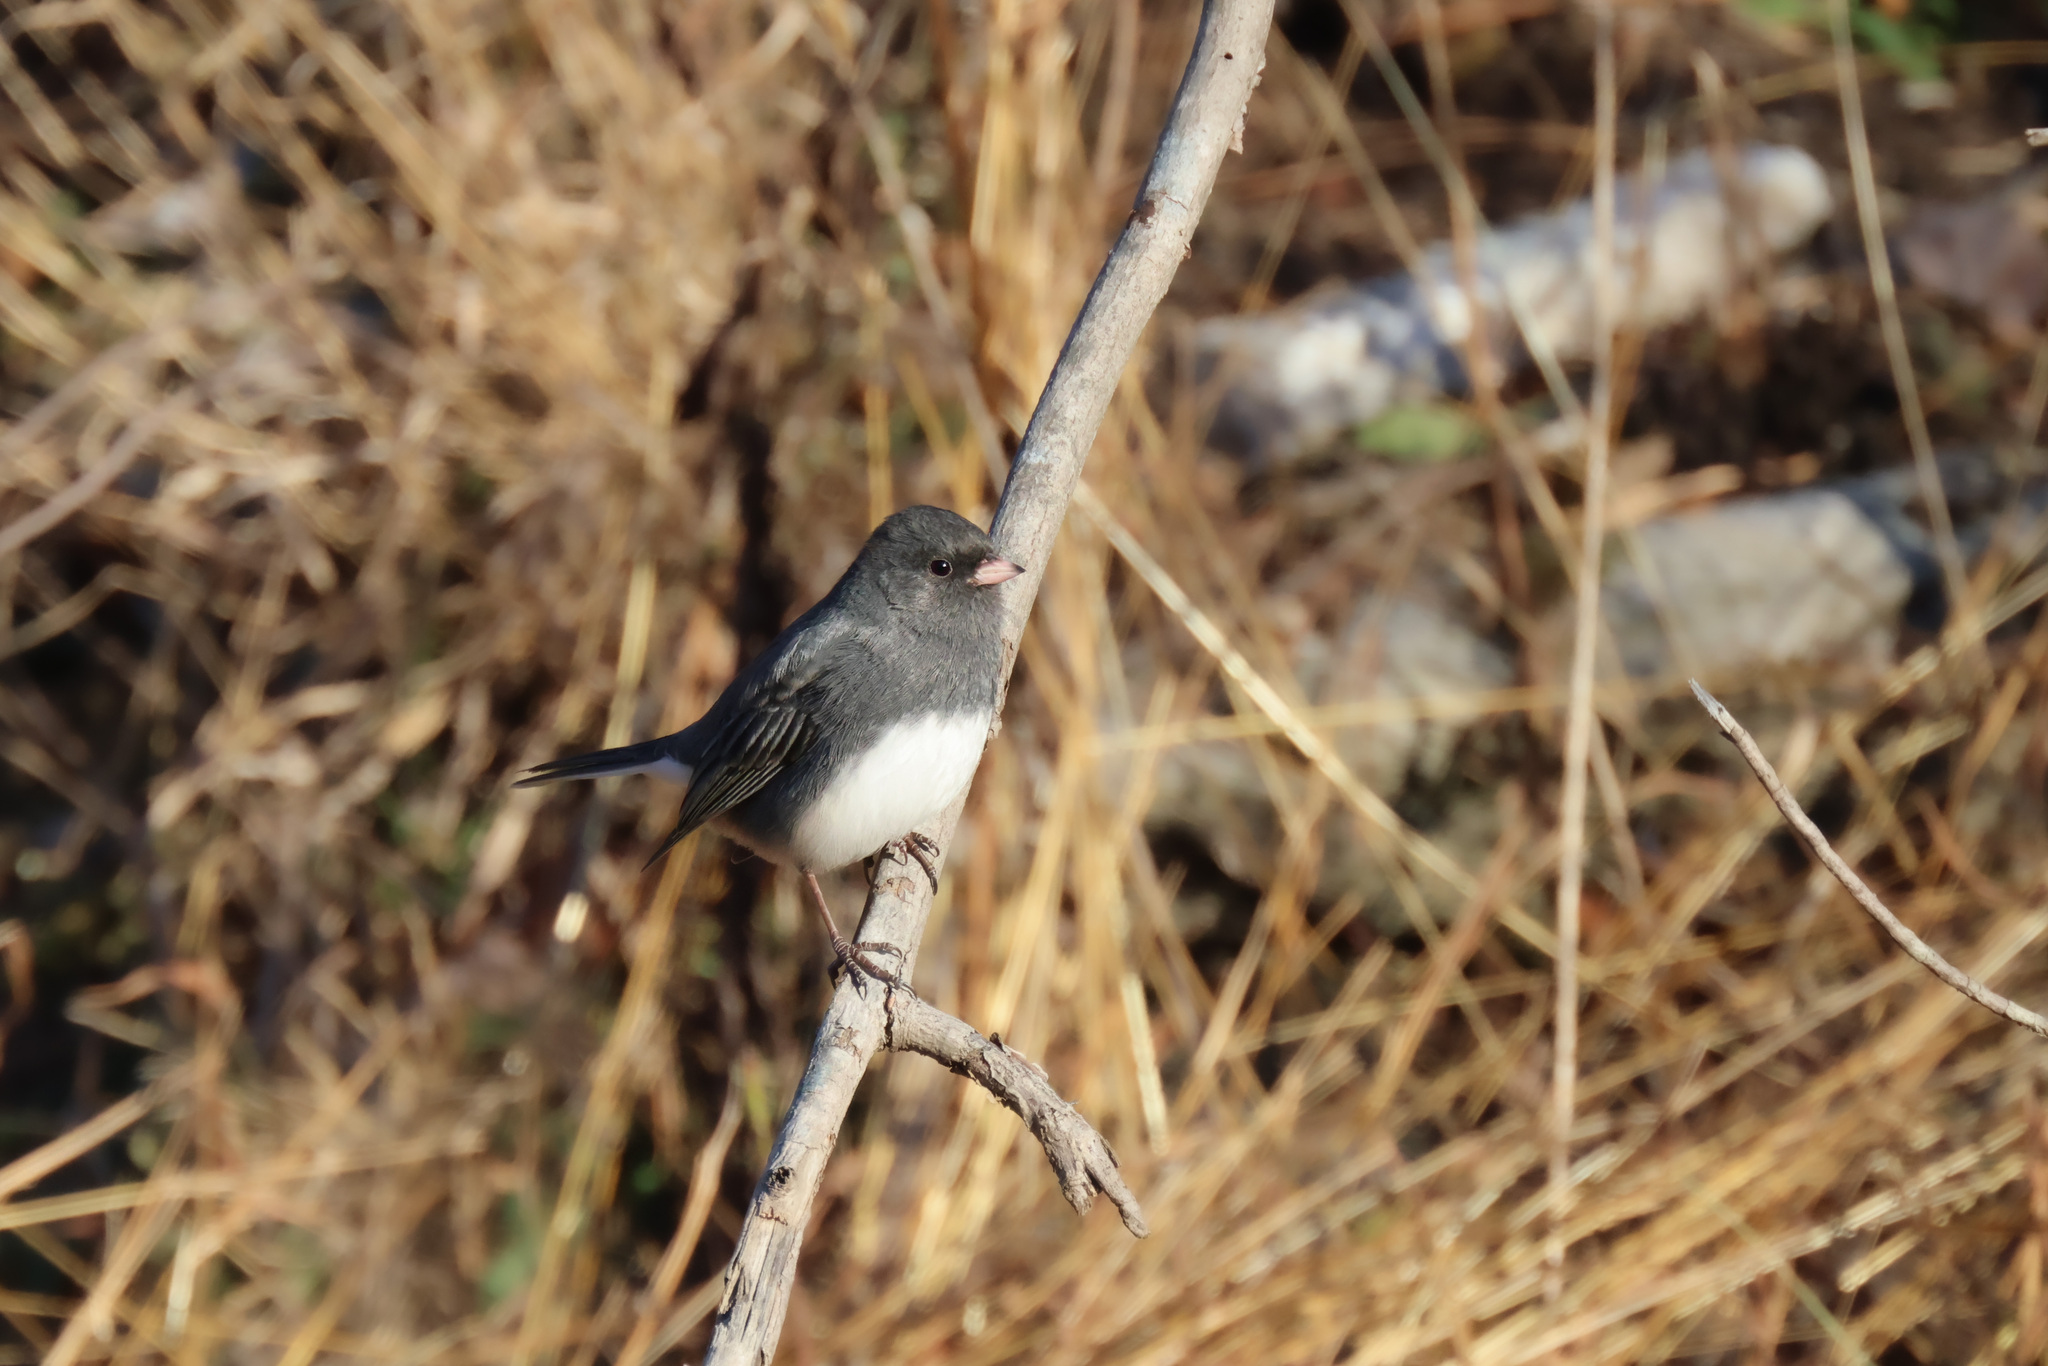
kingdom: Animalia
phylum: Chordata
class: Aves
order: Passeriformes
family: Passerellidae
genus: Junco
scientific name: Junco hyemalis
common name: Dark-eyed junco
